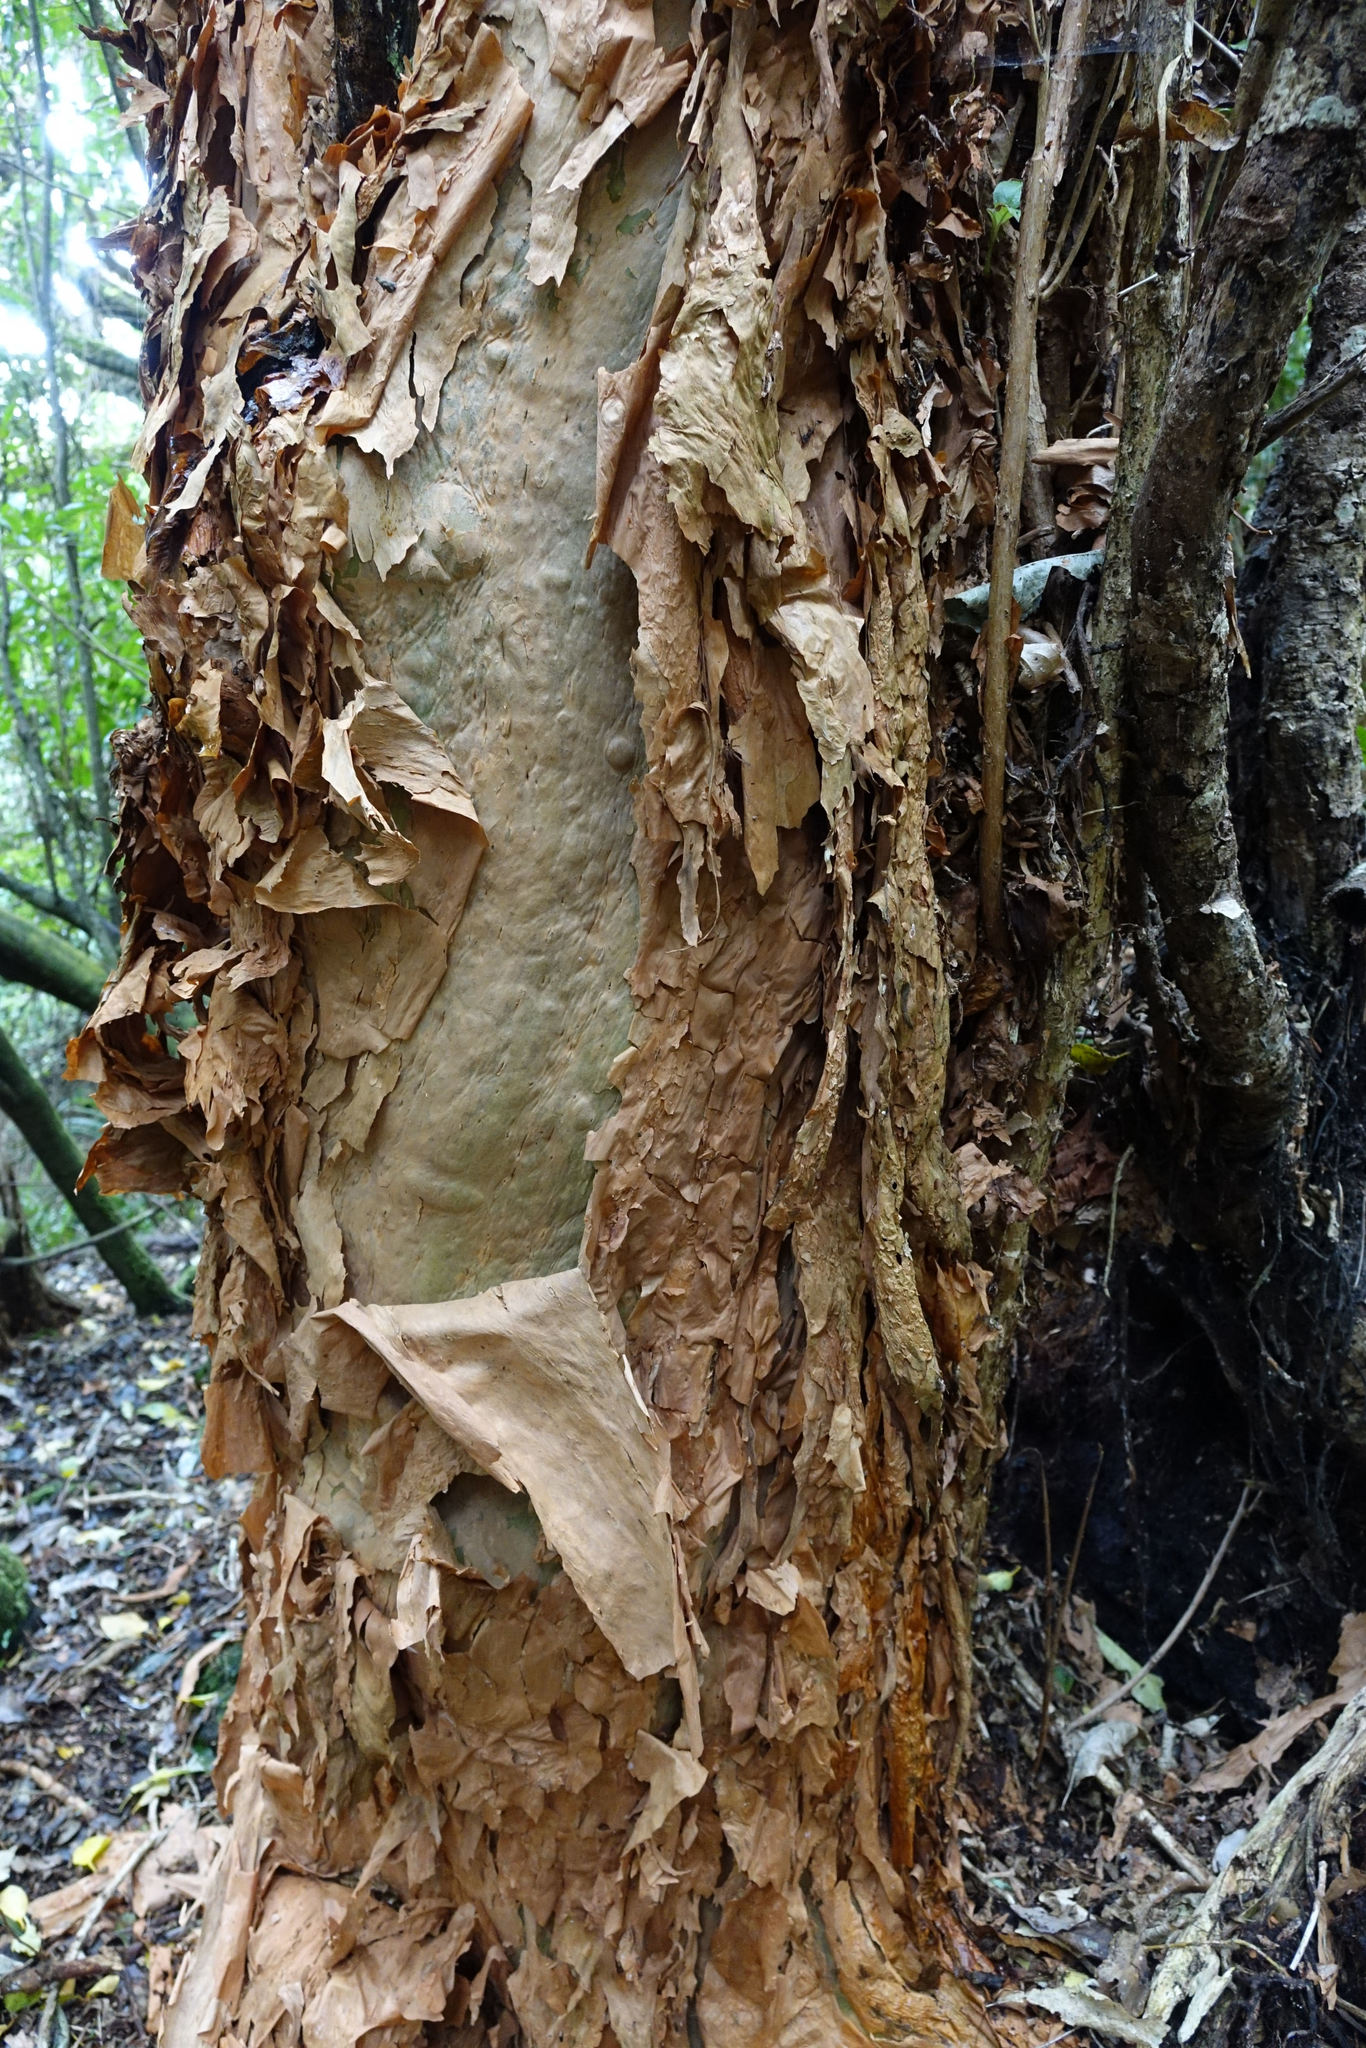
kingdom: Plantae
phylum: Tracheophyta
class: Magnoliopsida
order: Myrtales
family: Onagraceae
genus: Fuchsia
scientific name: Fuchsia excorticata
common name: Tree fuchsia
